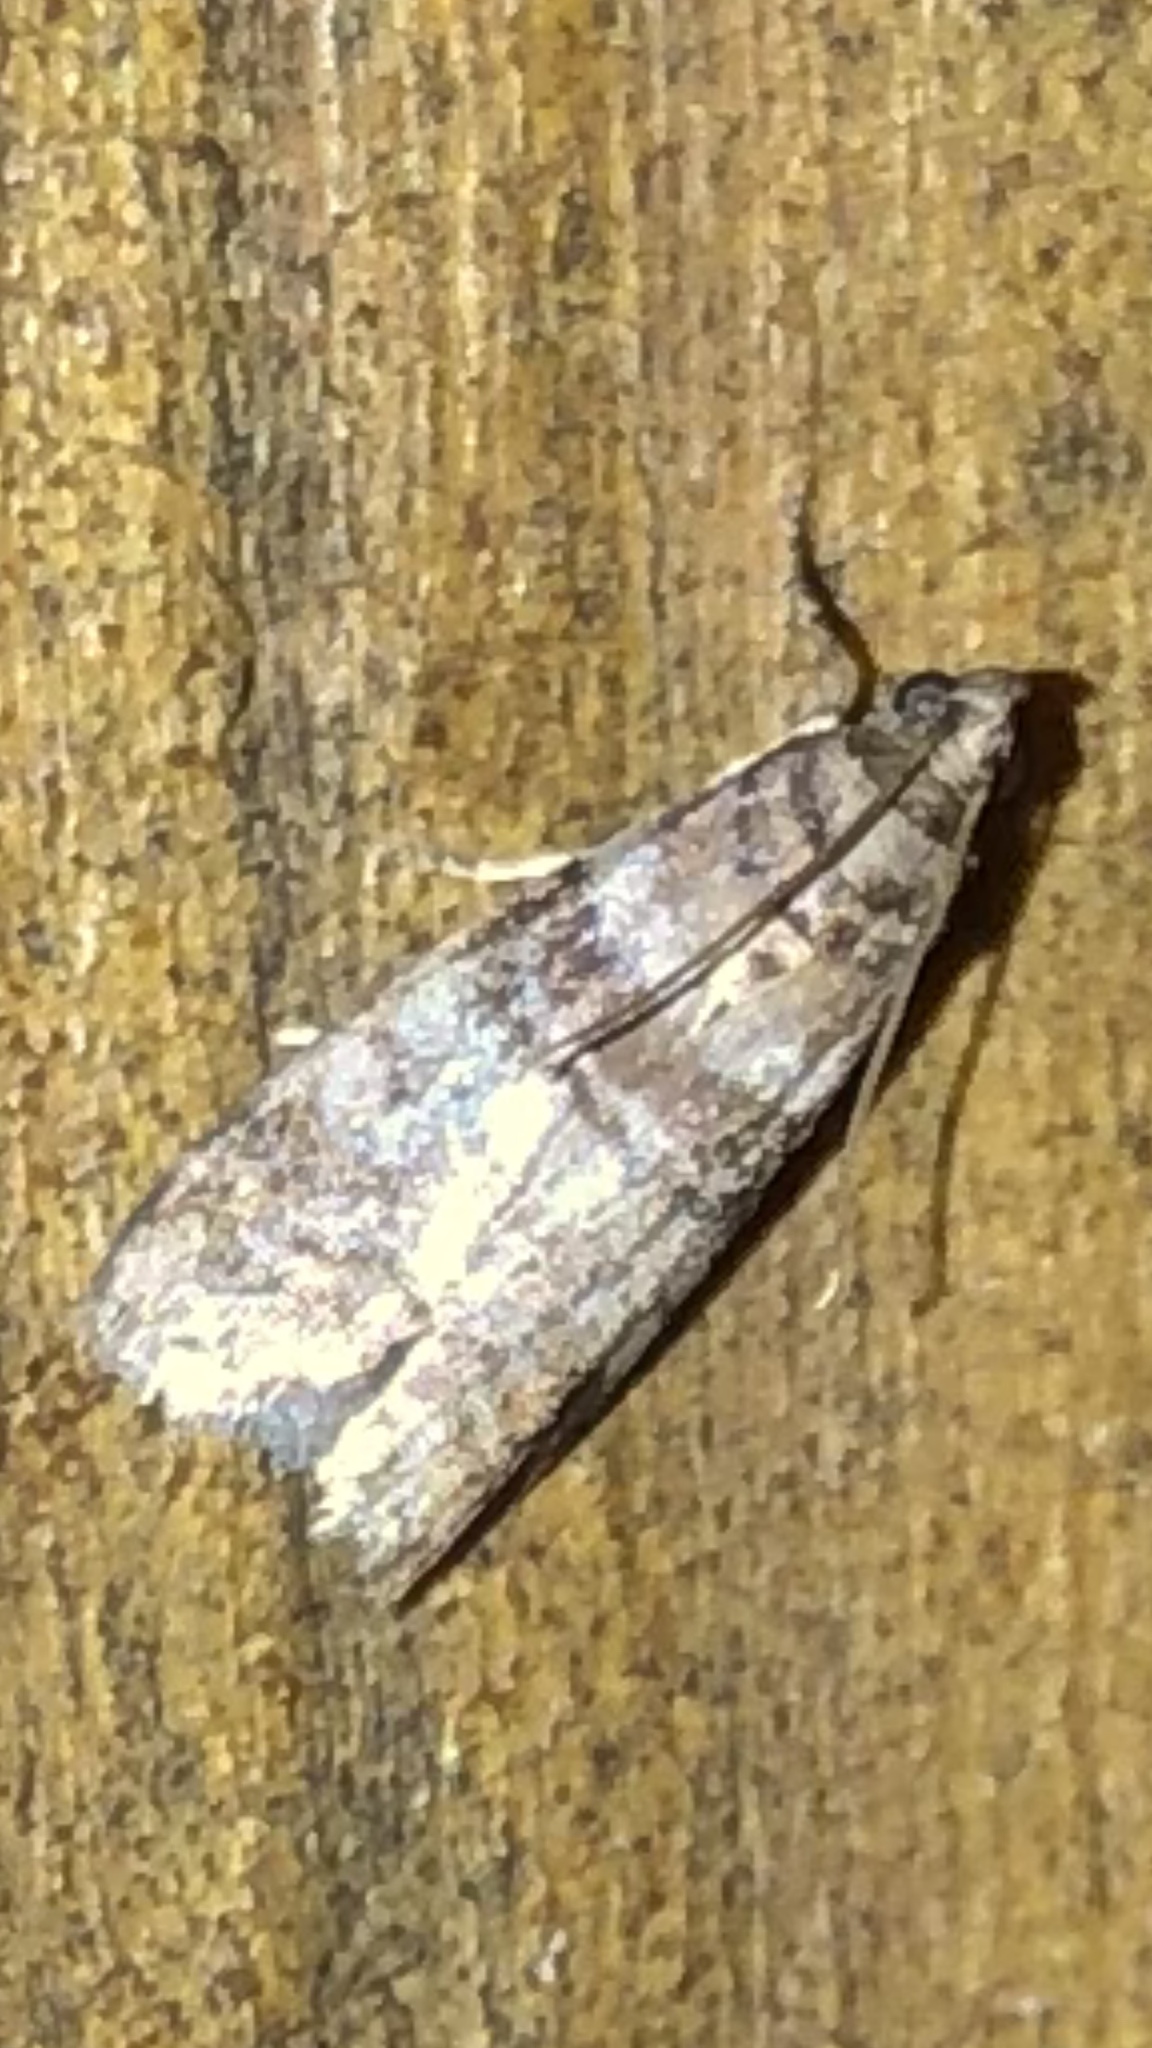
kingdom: Animalia
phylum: Arthropoda
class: Insecta
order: Lepidoptera
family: Pyralidae
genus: Sciota
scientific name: Sciota uvinella
